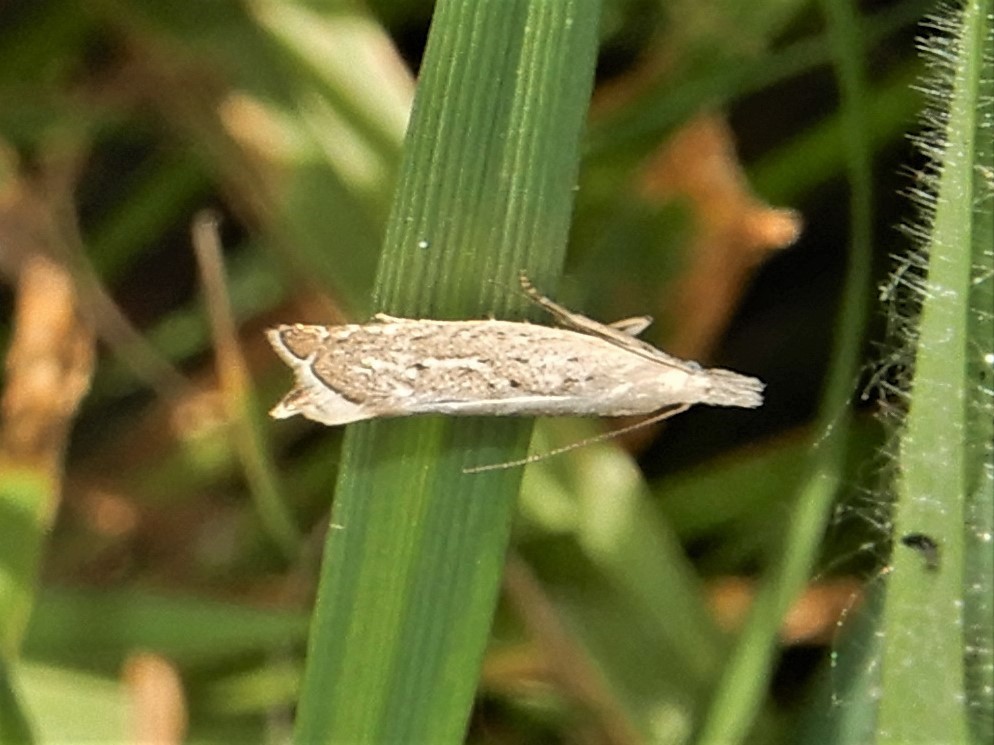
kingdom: Animalia
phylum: Arthropoda
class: Insecta
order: Lepidoptera
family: Glyphipterigidae
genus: Glyphipterix
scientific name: Glyphipterix achlyoessa
